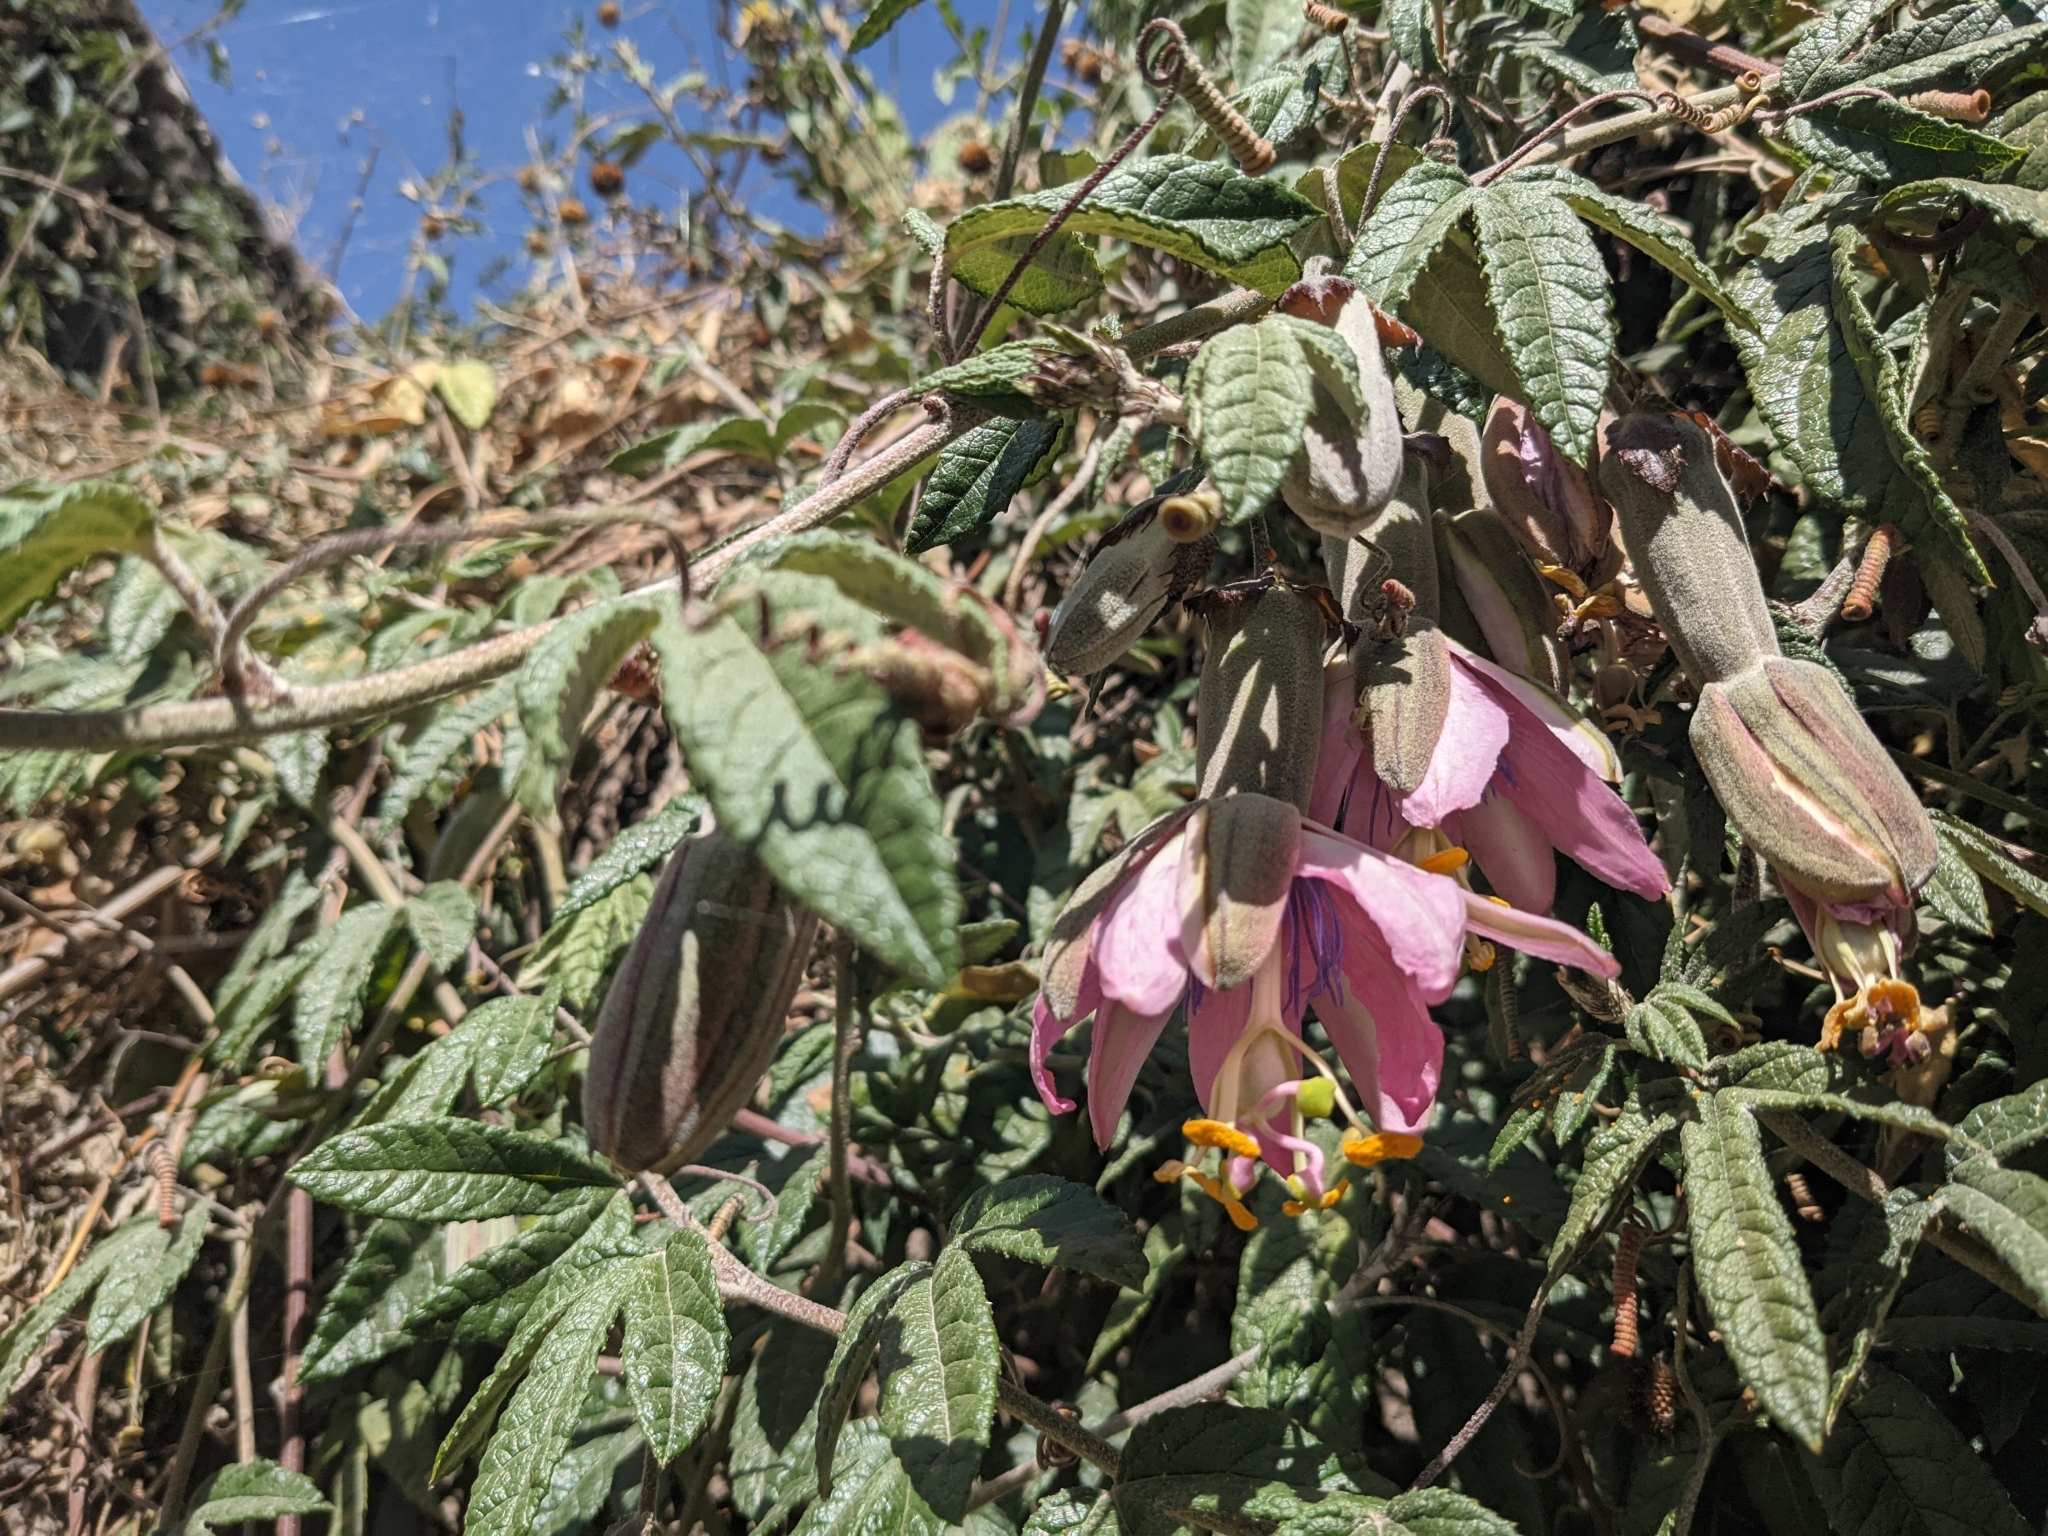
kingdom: Plantae
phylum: Tracheophyta
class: Magnoliopsida
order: Malpighiales
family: Passifloraceae
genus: Passiflora
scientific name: Passiflora pinnatistipula
